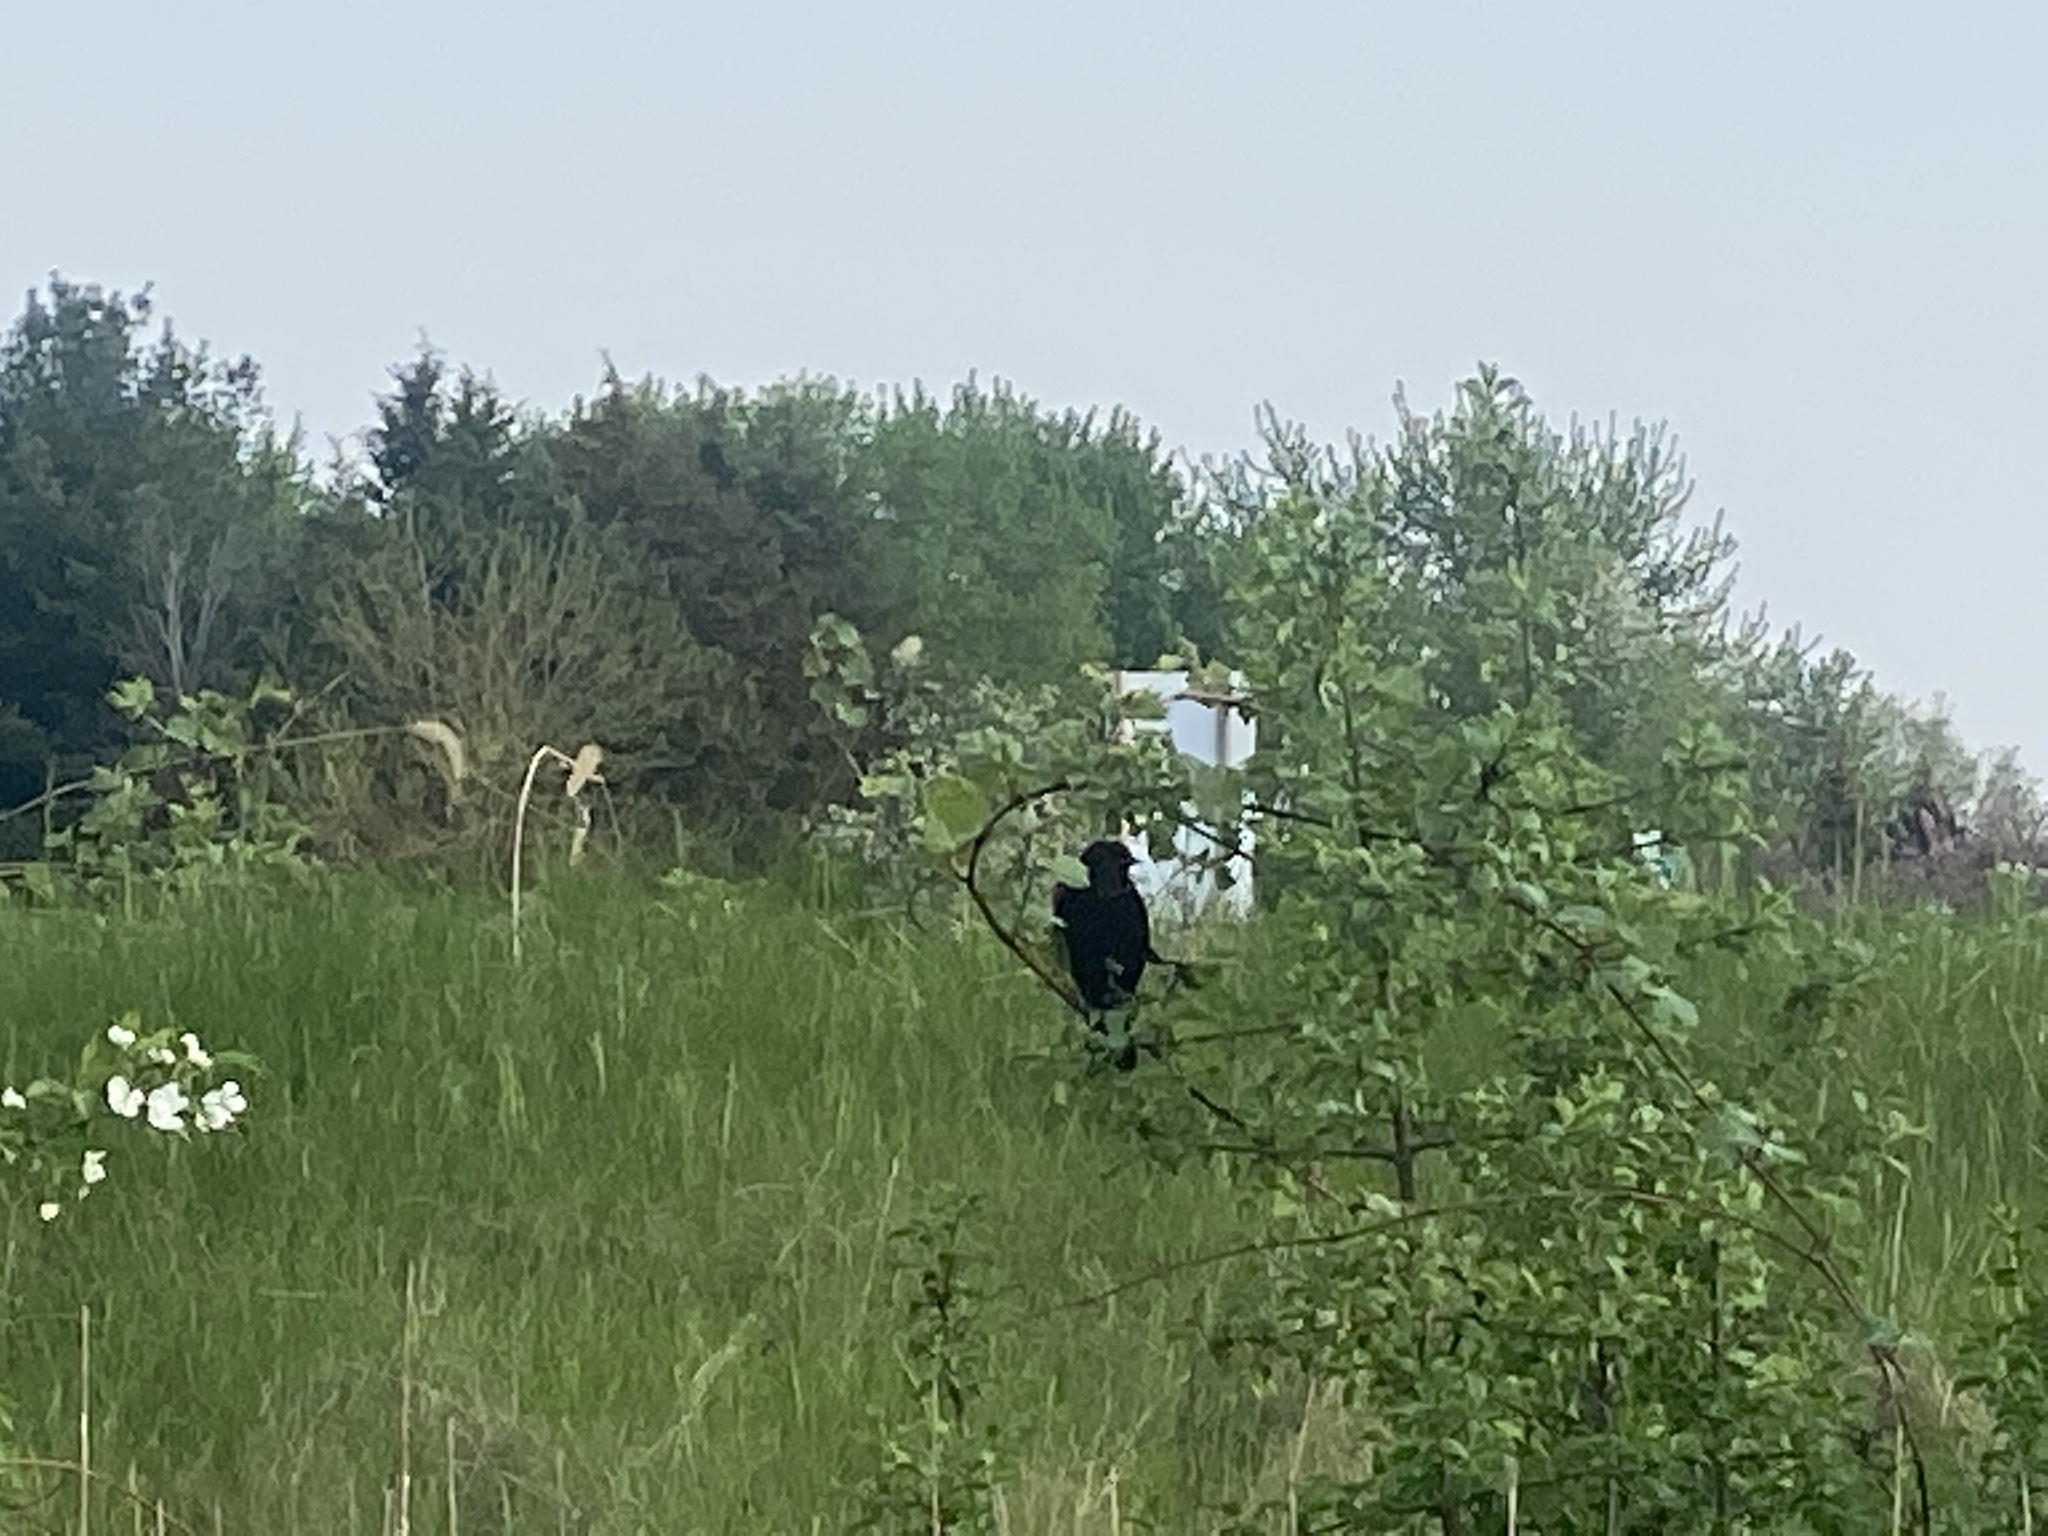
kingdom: Animalia
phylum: Chordata
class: Aves
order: Passeriformes
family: Icteridae
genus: Agelaius
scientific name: Agelaius phoeniceus
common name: Red-winged blackbird
